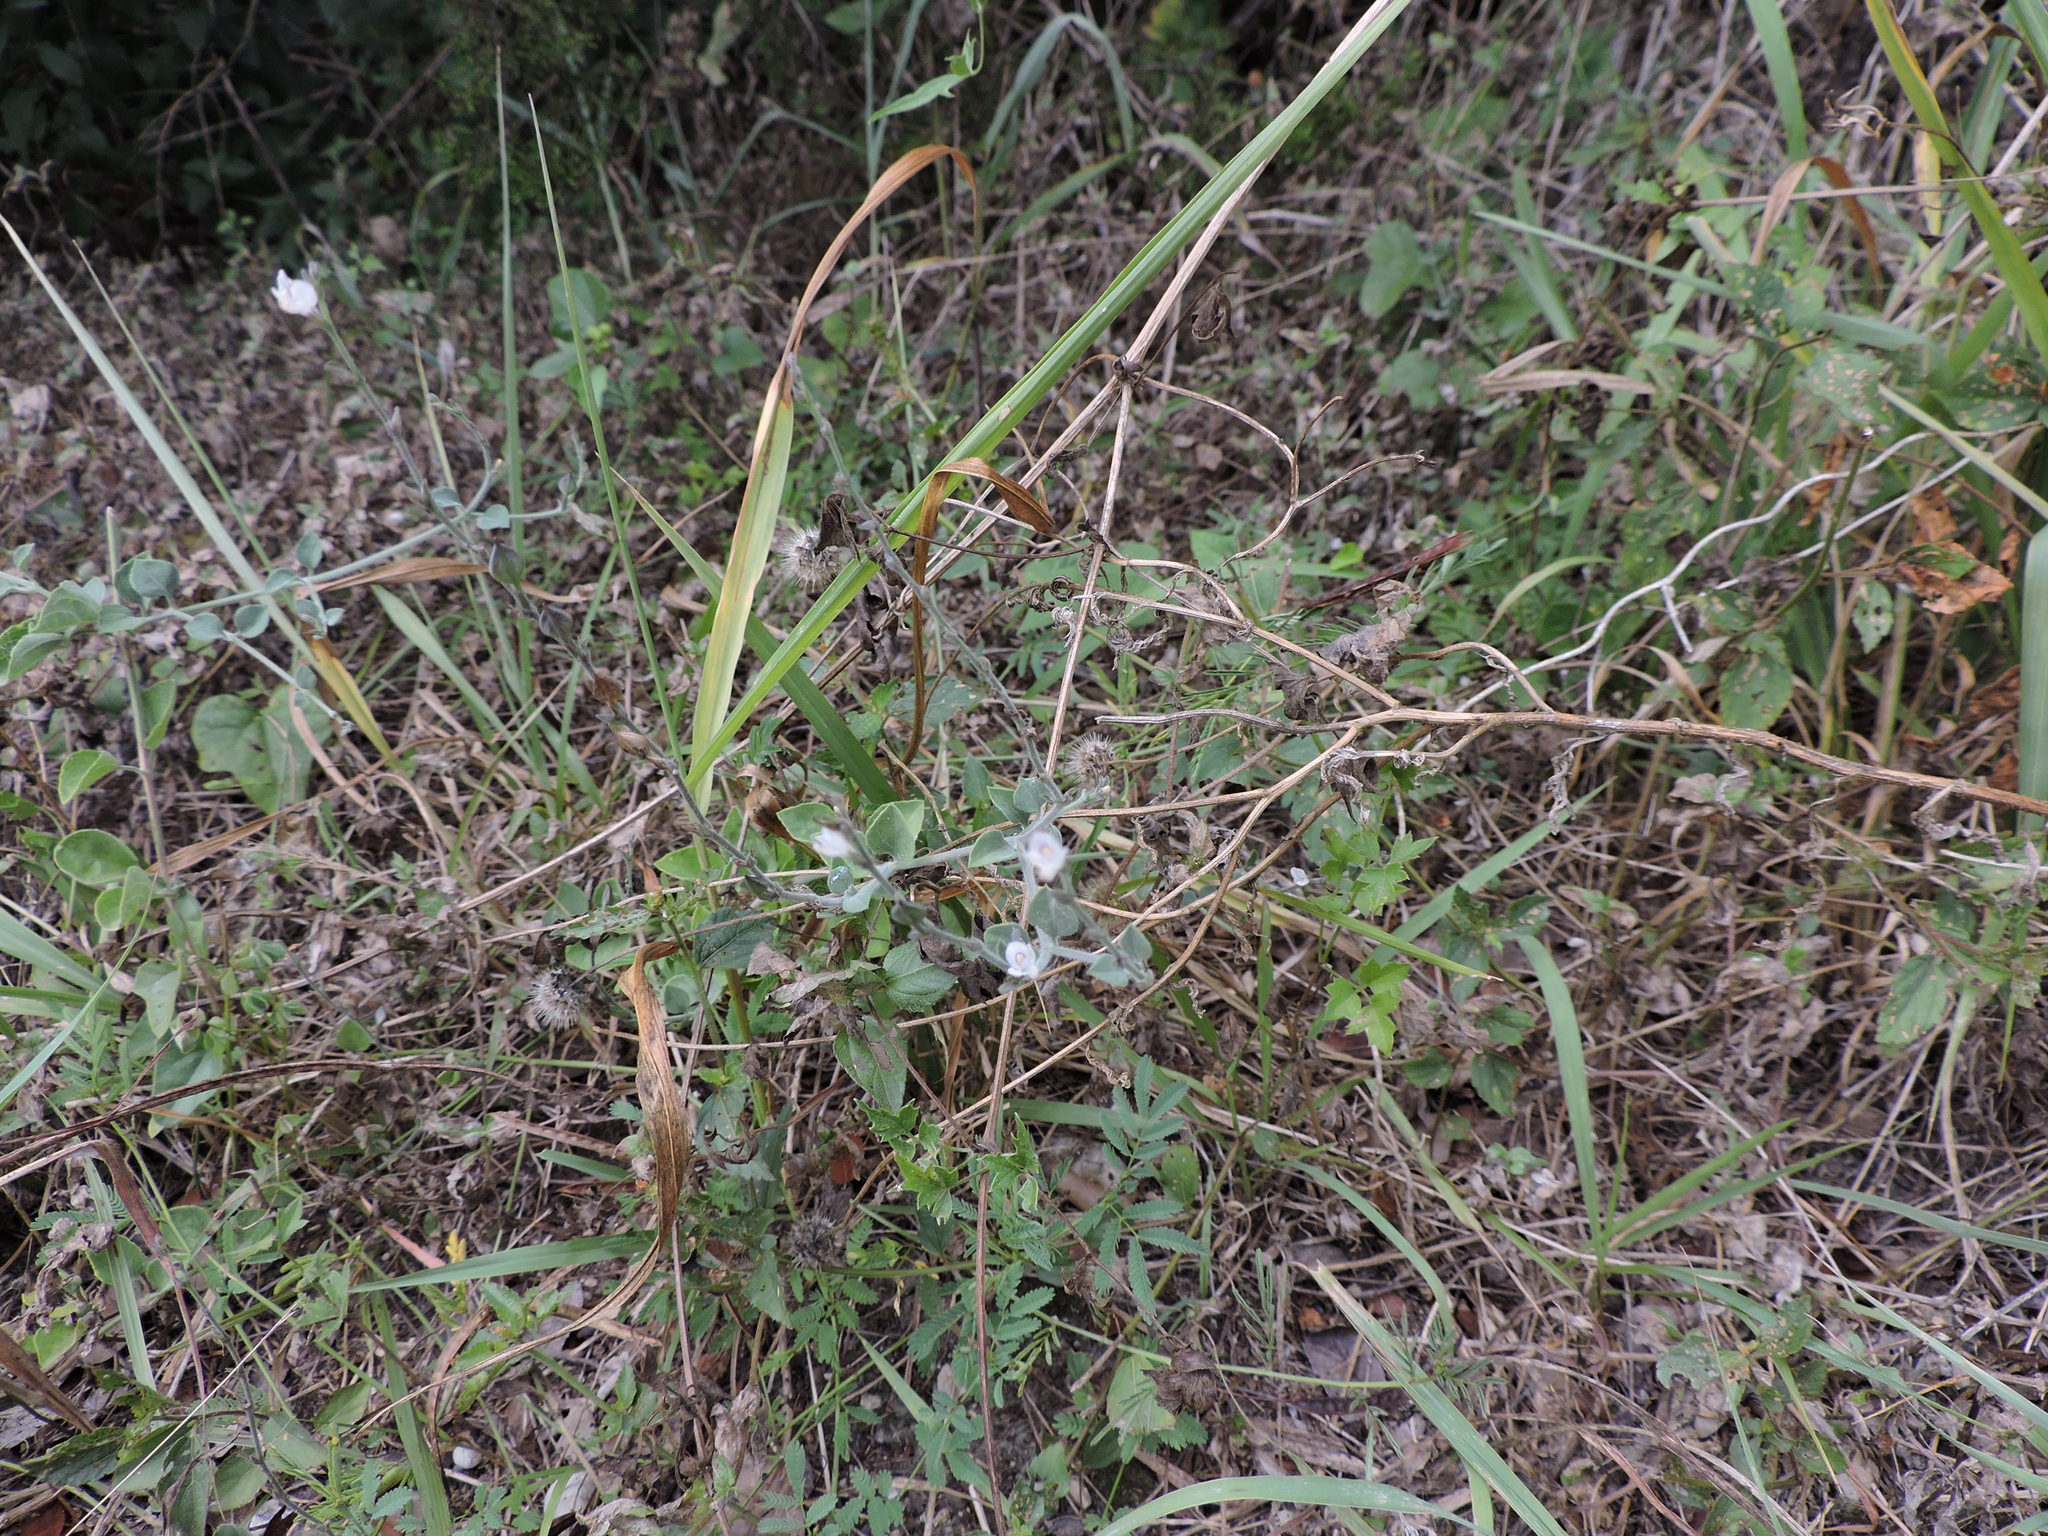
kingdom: Plantae
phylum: Tracheophyta
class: Magnoliopsida
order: Lamiales
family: Acanthaceae
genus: Carlowrightia
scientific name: Carlowrightia torreyana
